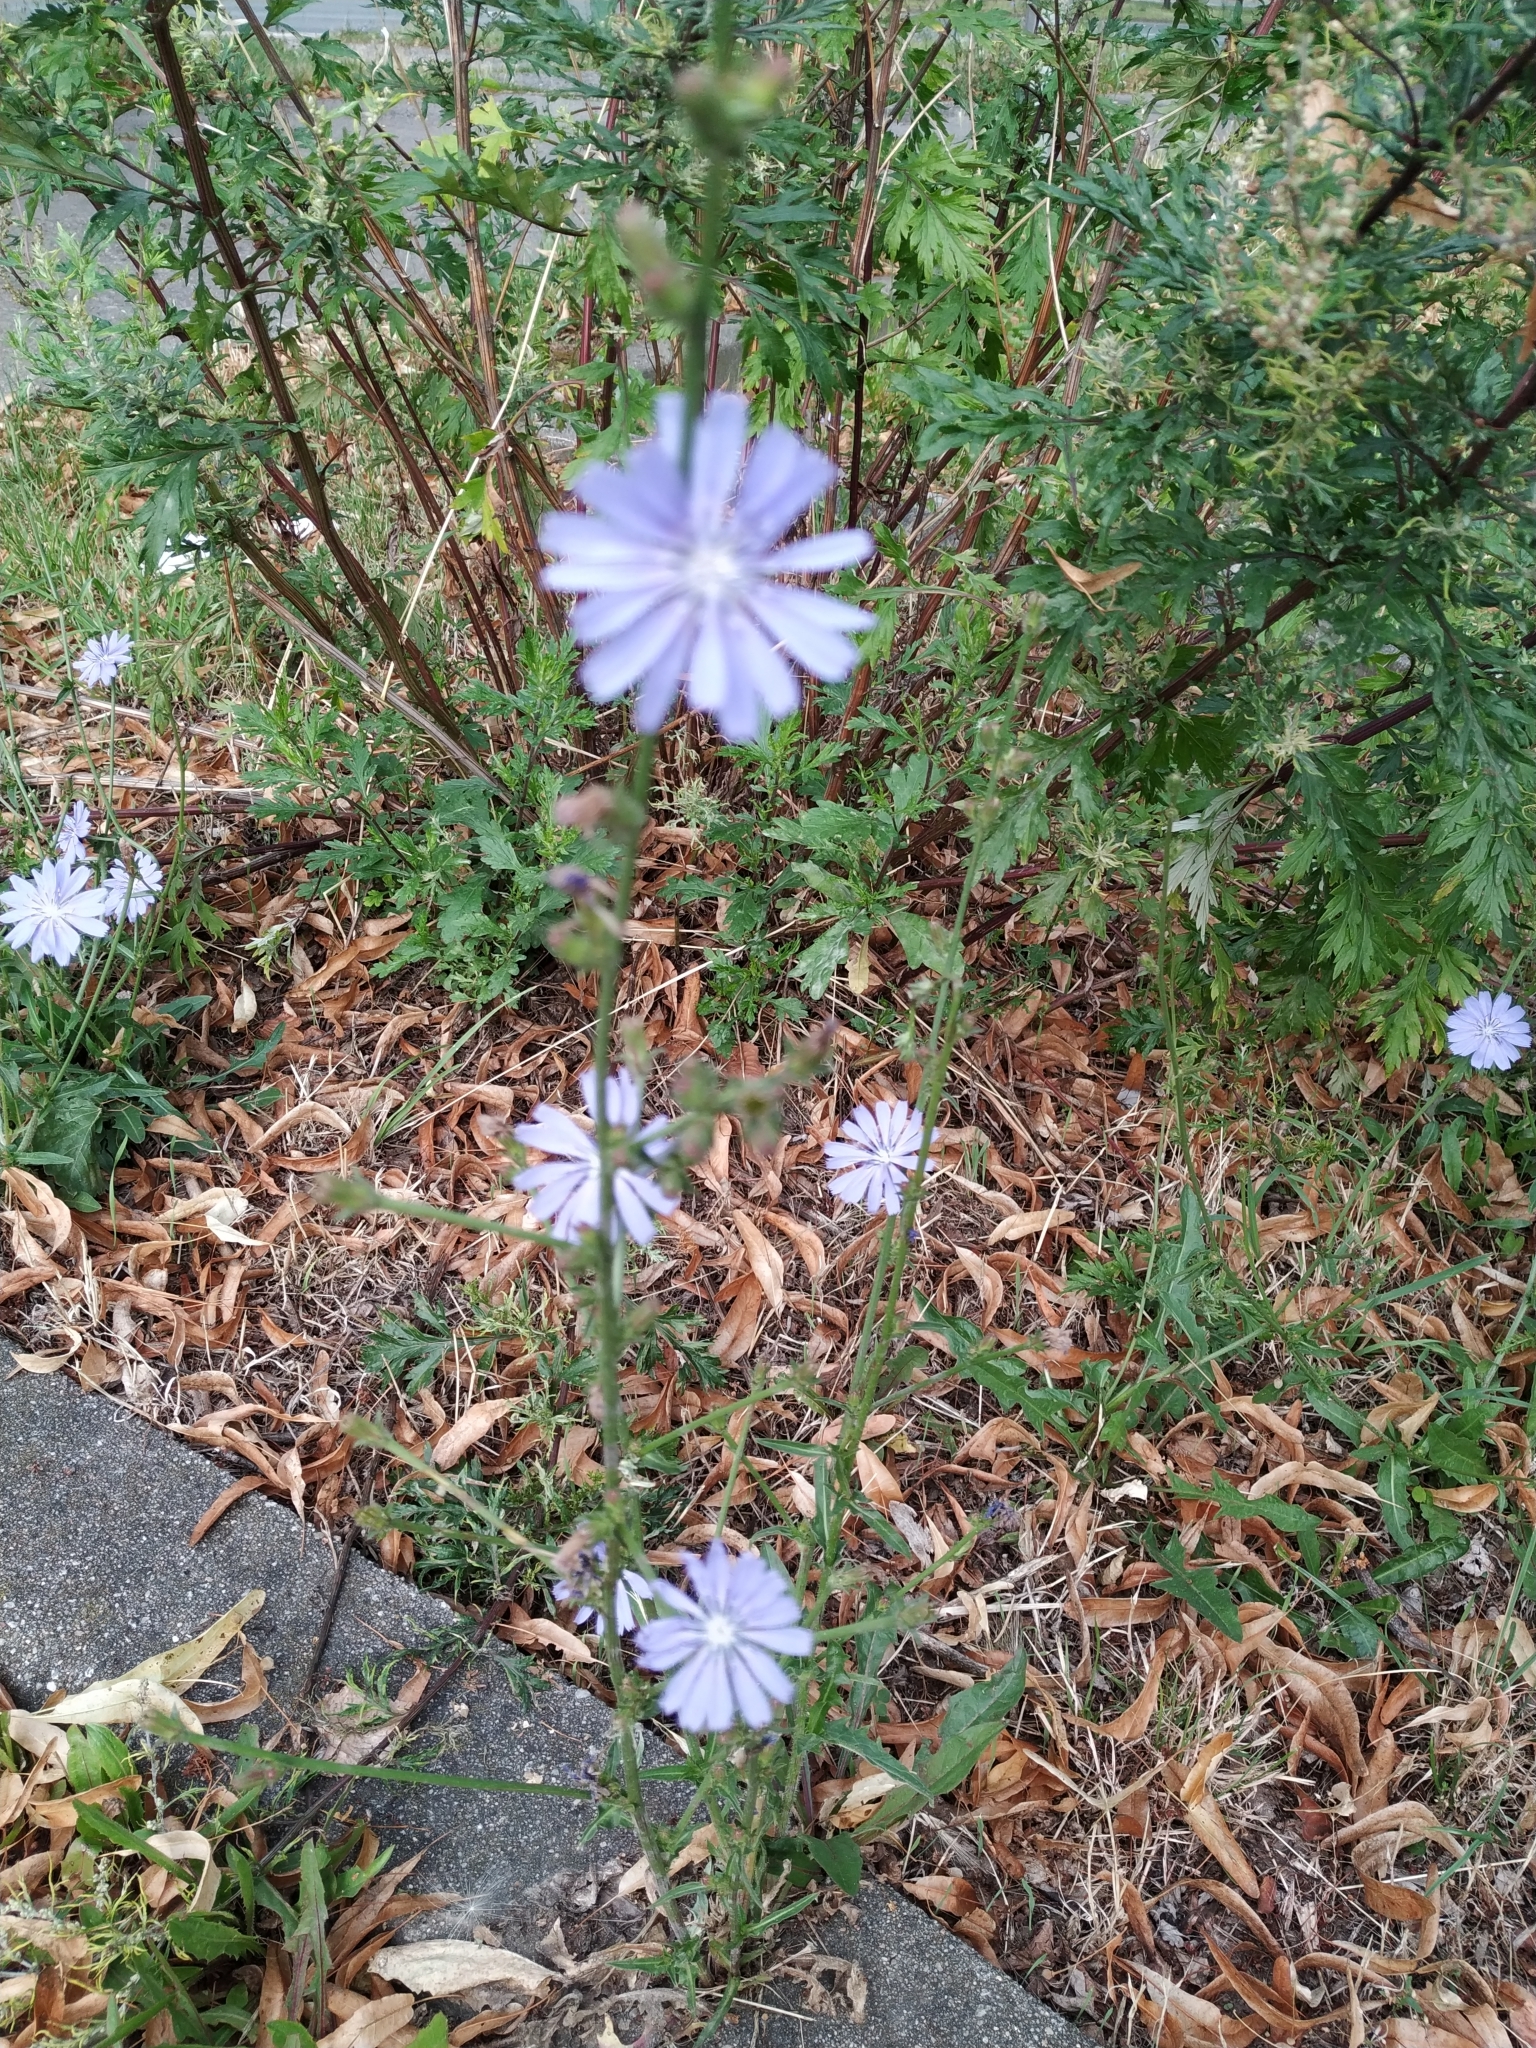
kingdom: Plantae
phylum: Tracheophyta
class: Magnoliopsida
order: Asterales
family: Asteraceae
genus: Cichorium
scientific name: Cichorium intybus
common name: Chicory
